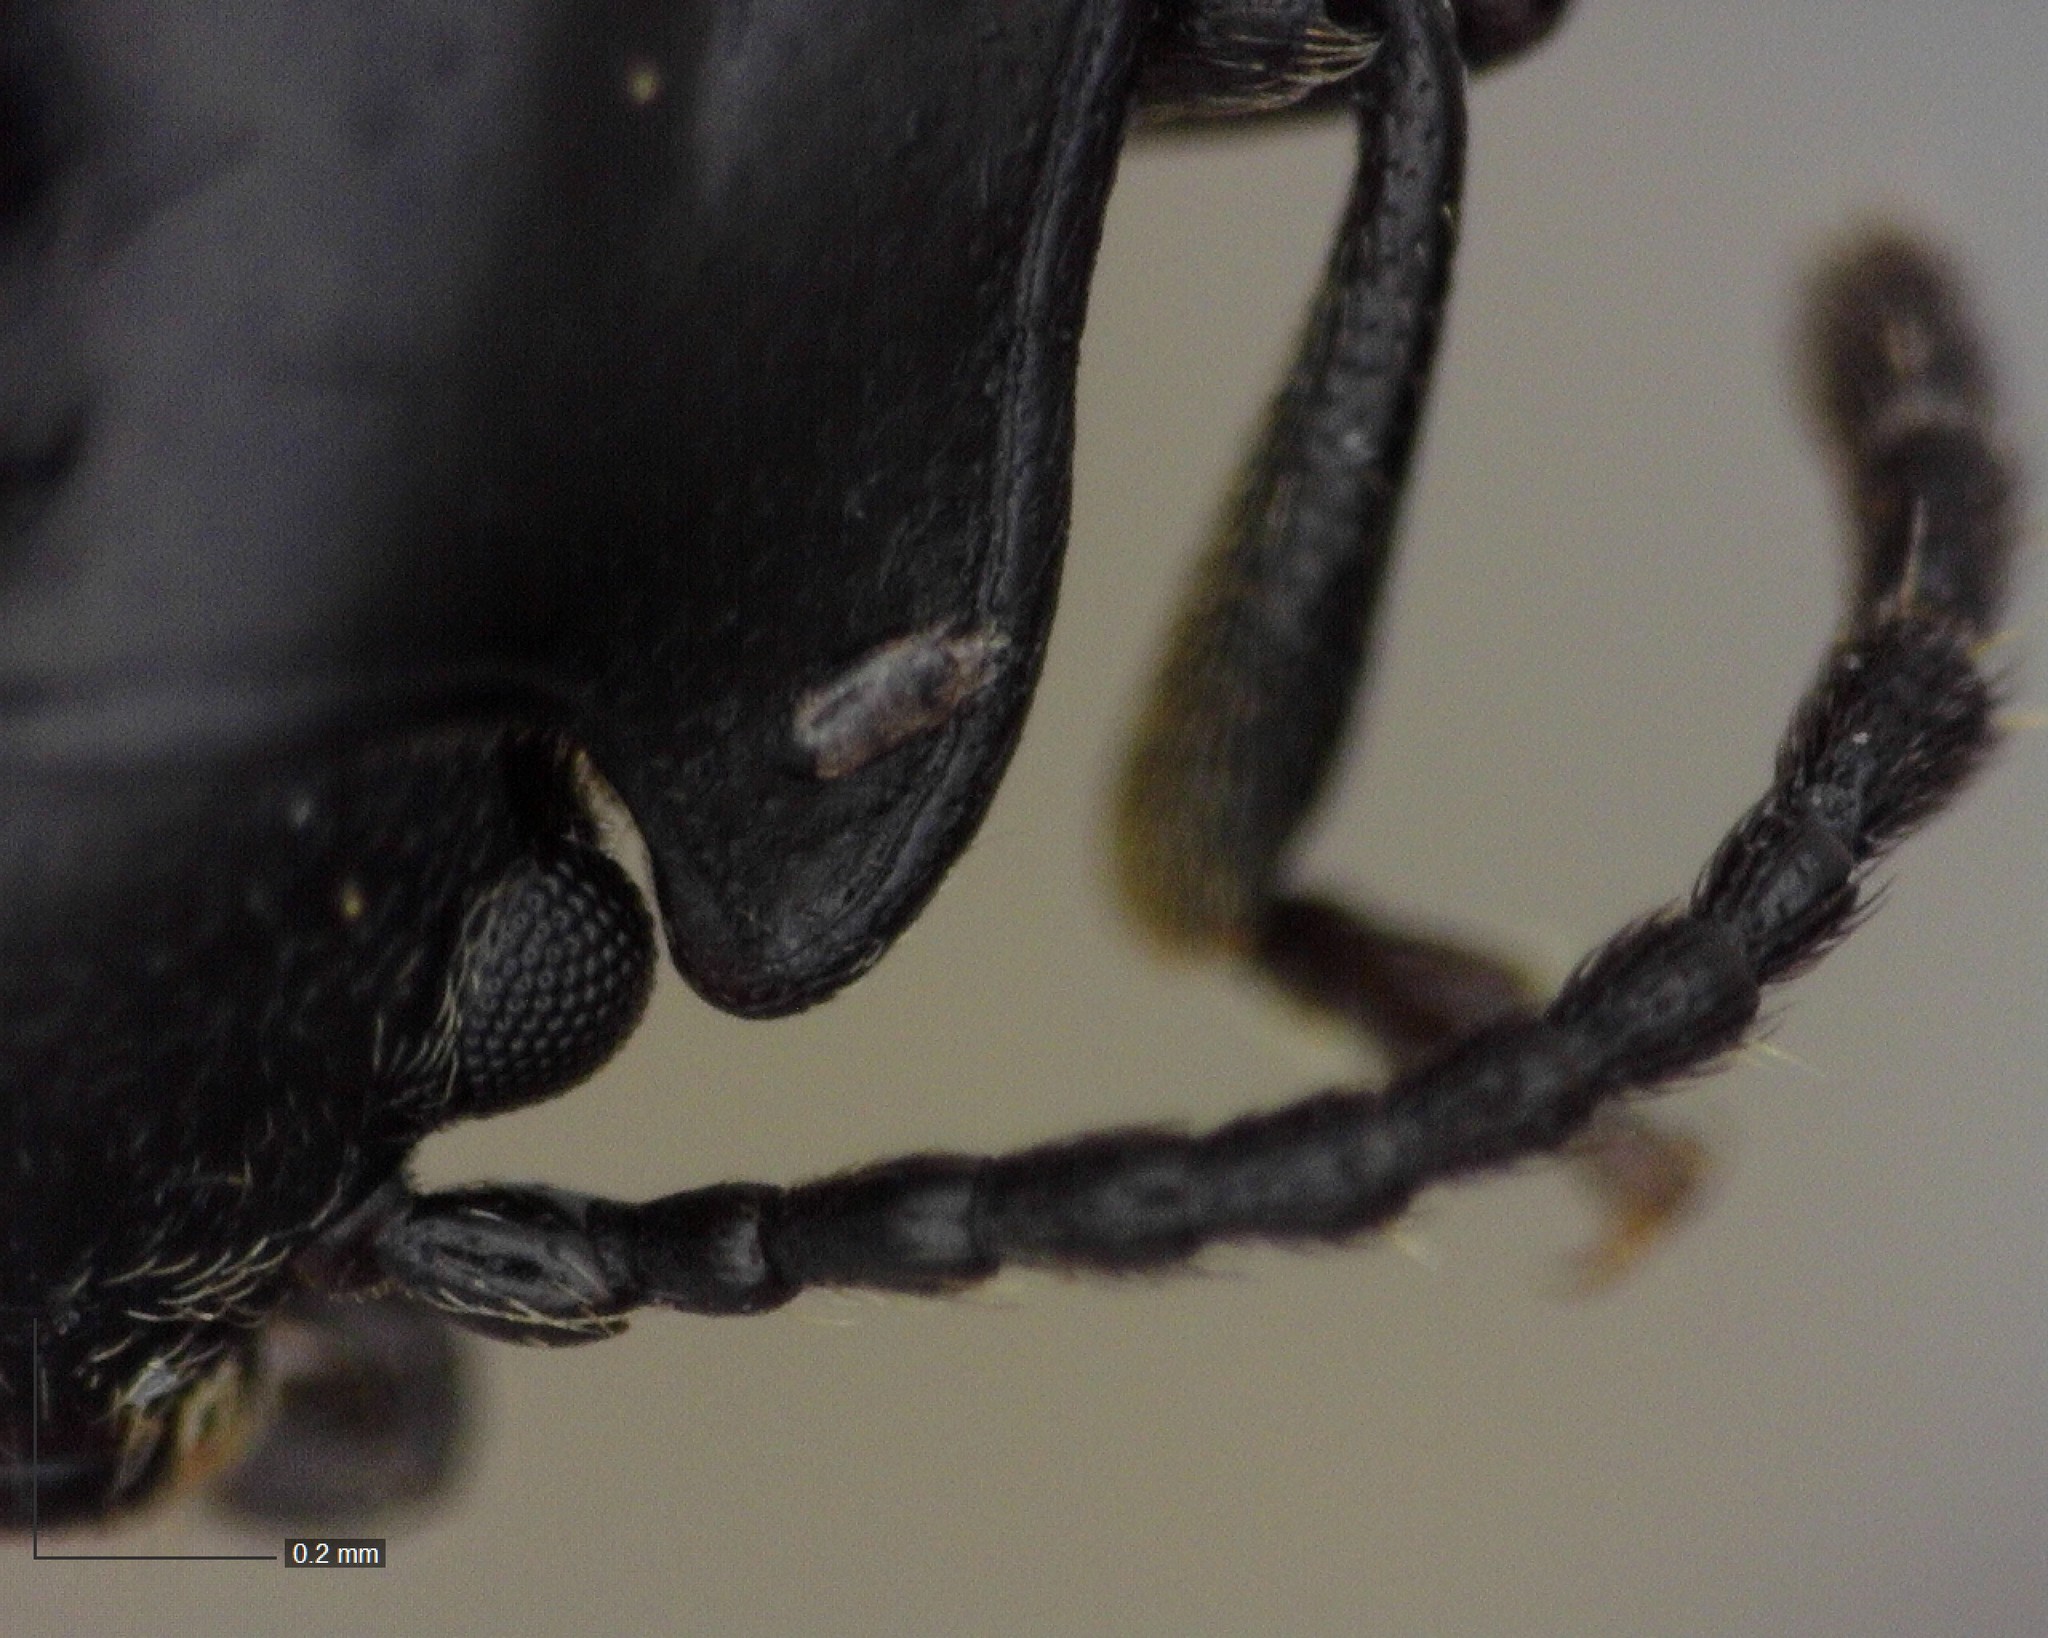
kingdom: Animalia
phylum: Arthropoda
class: Insecta
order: Coleoptera
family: Endomychidae
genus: Endomychus
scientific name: Endomychus biguttatus
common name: Handsome fungus beetle
